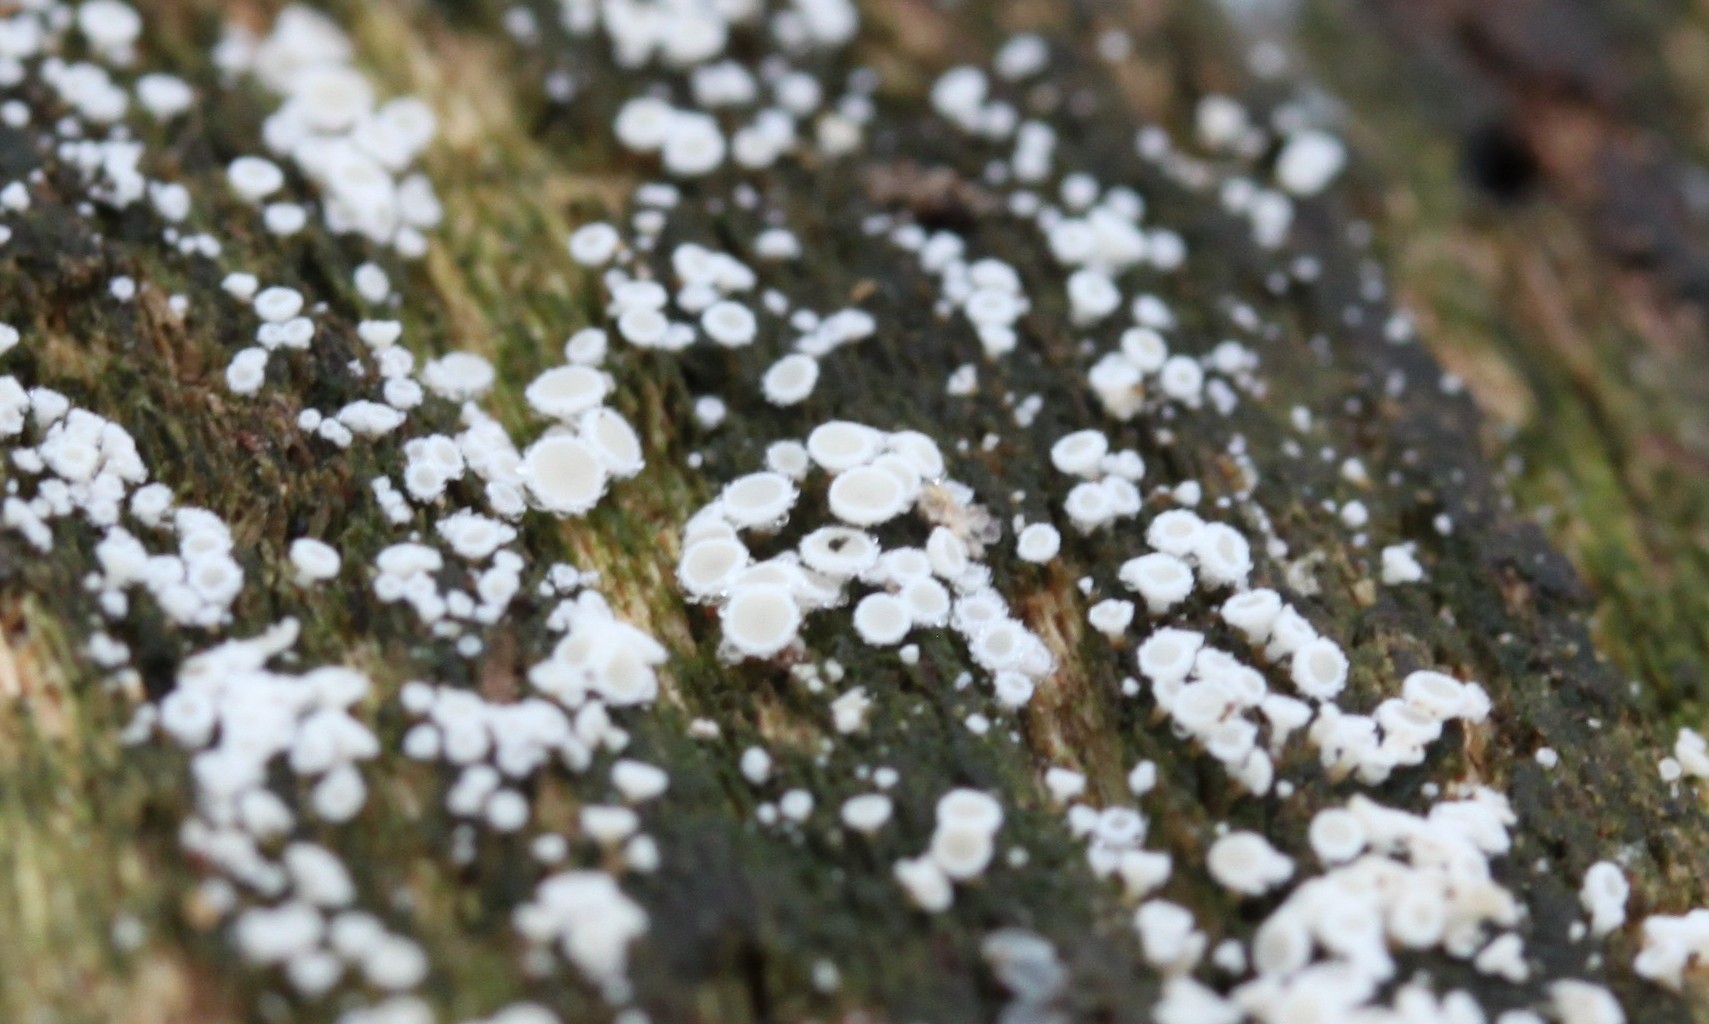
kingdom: Fungi
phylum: Ascomycota
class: Leotiomycetes
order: Helotiales
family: Lachnaceae
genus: Lachnum
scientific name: Lachnum virgineum
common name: Snowy disco
